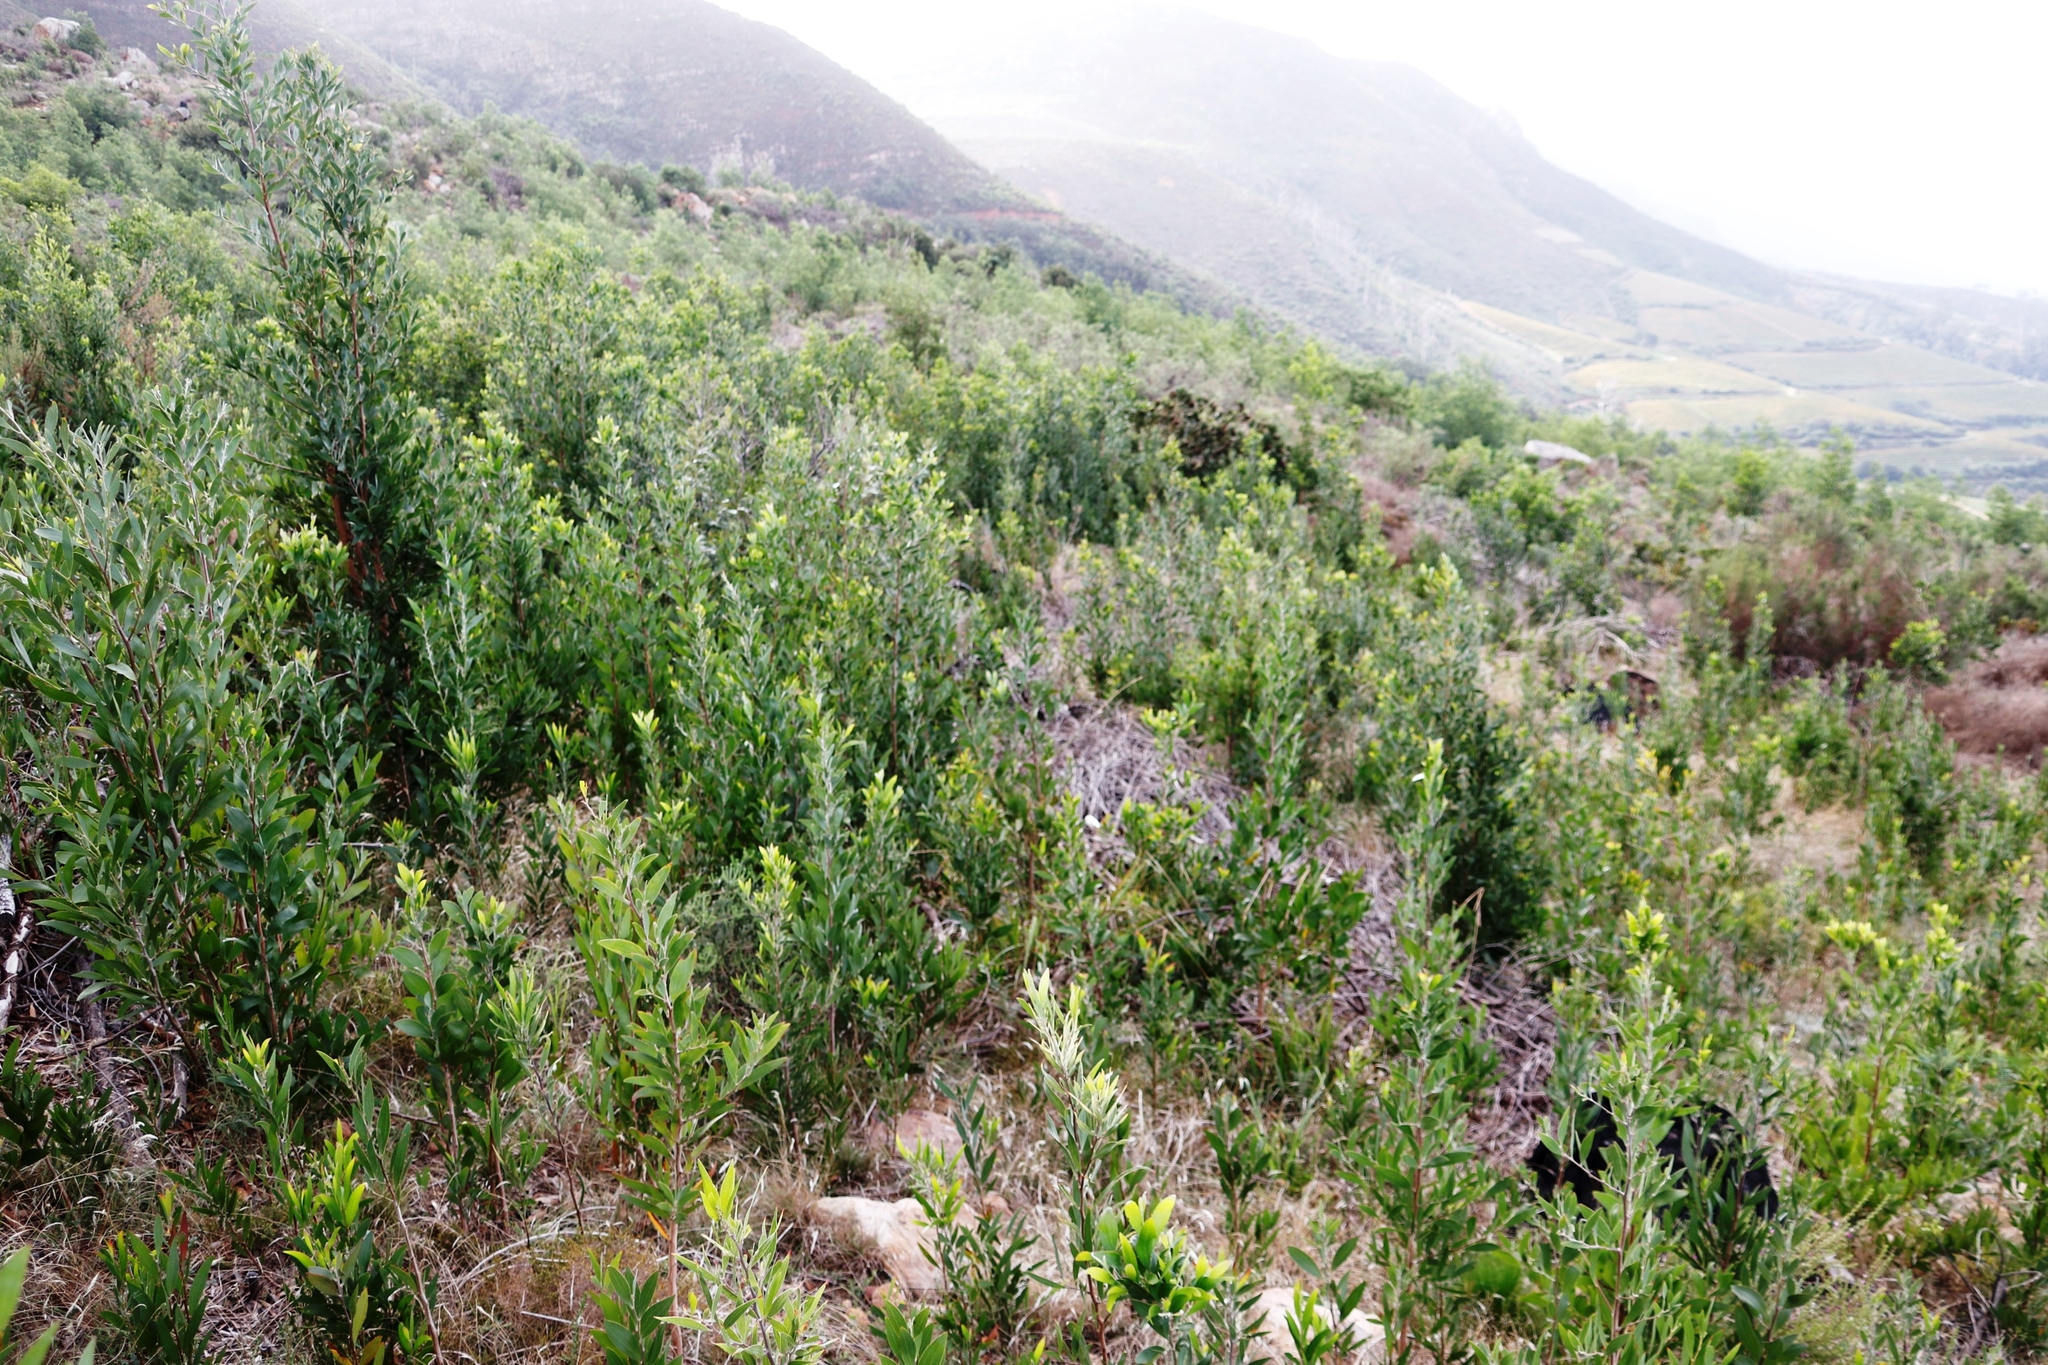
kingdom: Plantae
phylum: Tracheophyta
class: Magnoliopsida
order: Fabales
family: Fabaceae
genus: Acacia
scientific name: Acacia melanoxylon
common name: Blackwood
